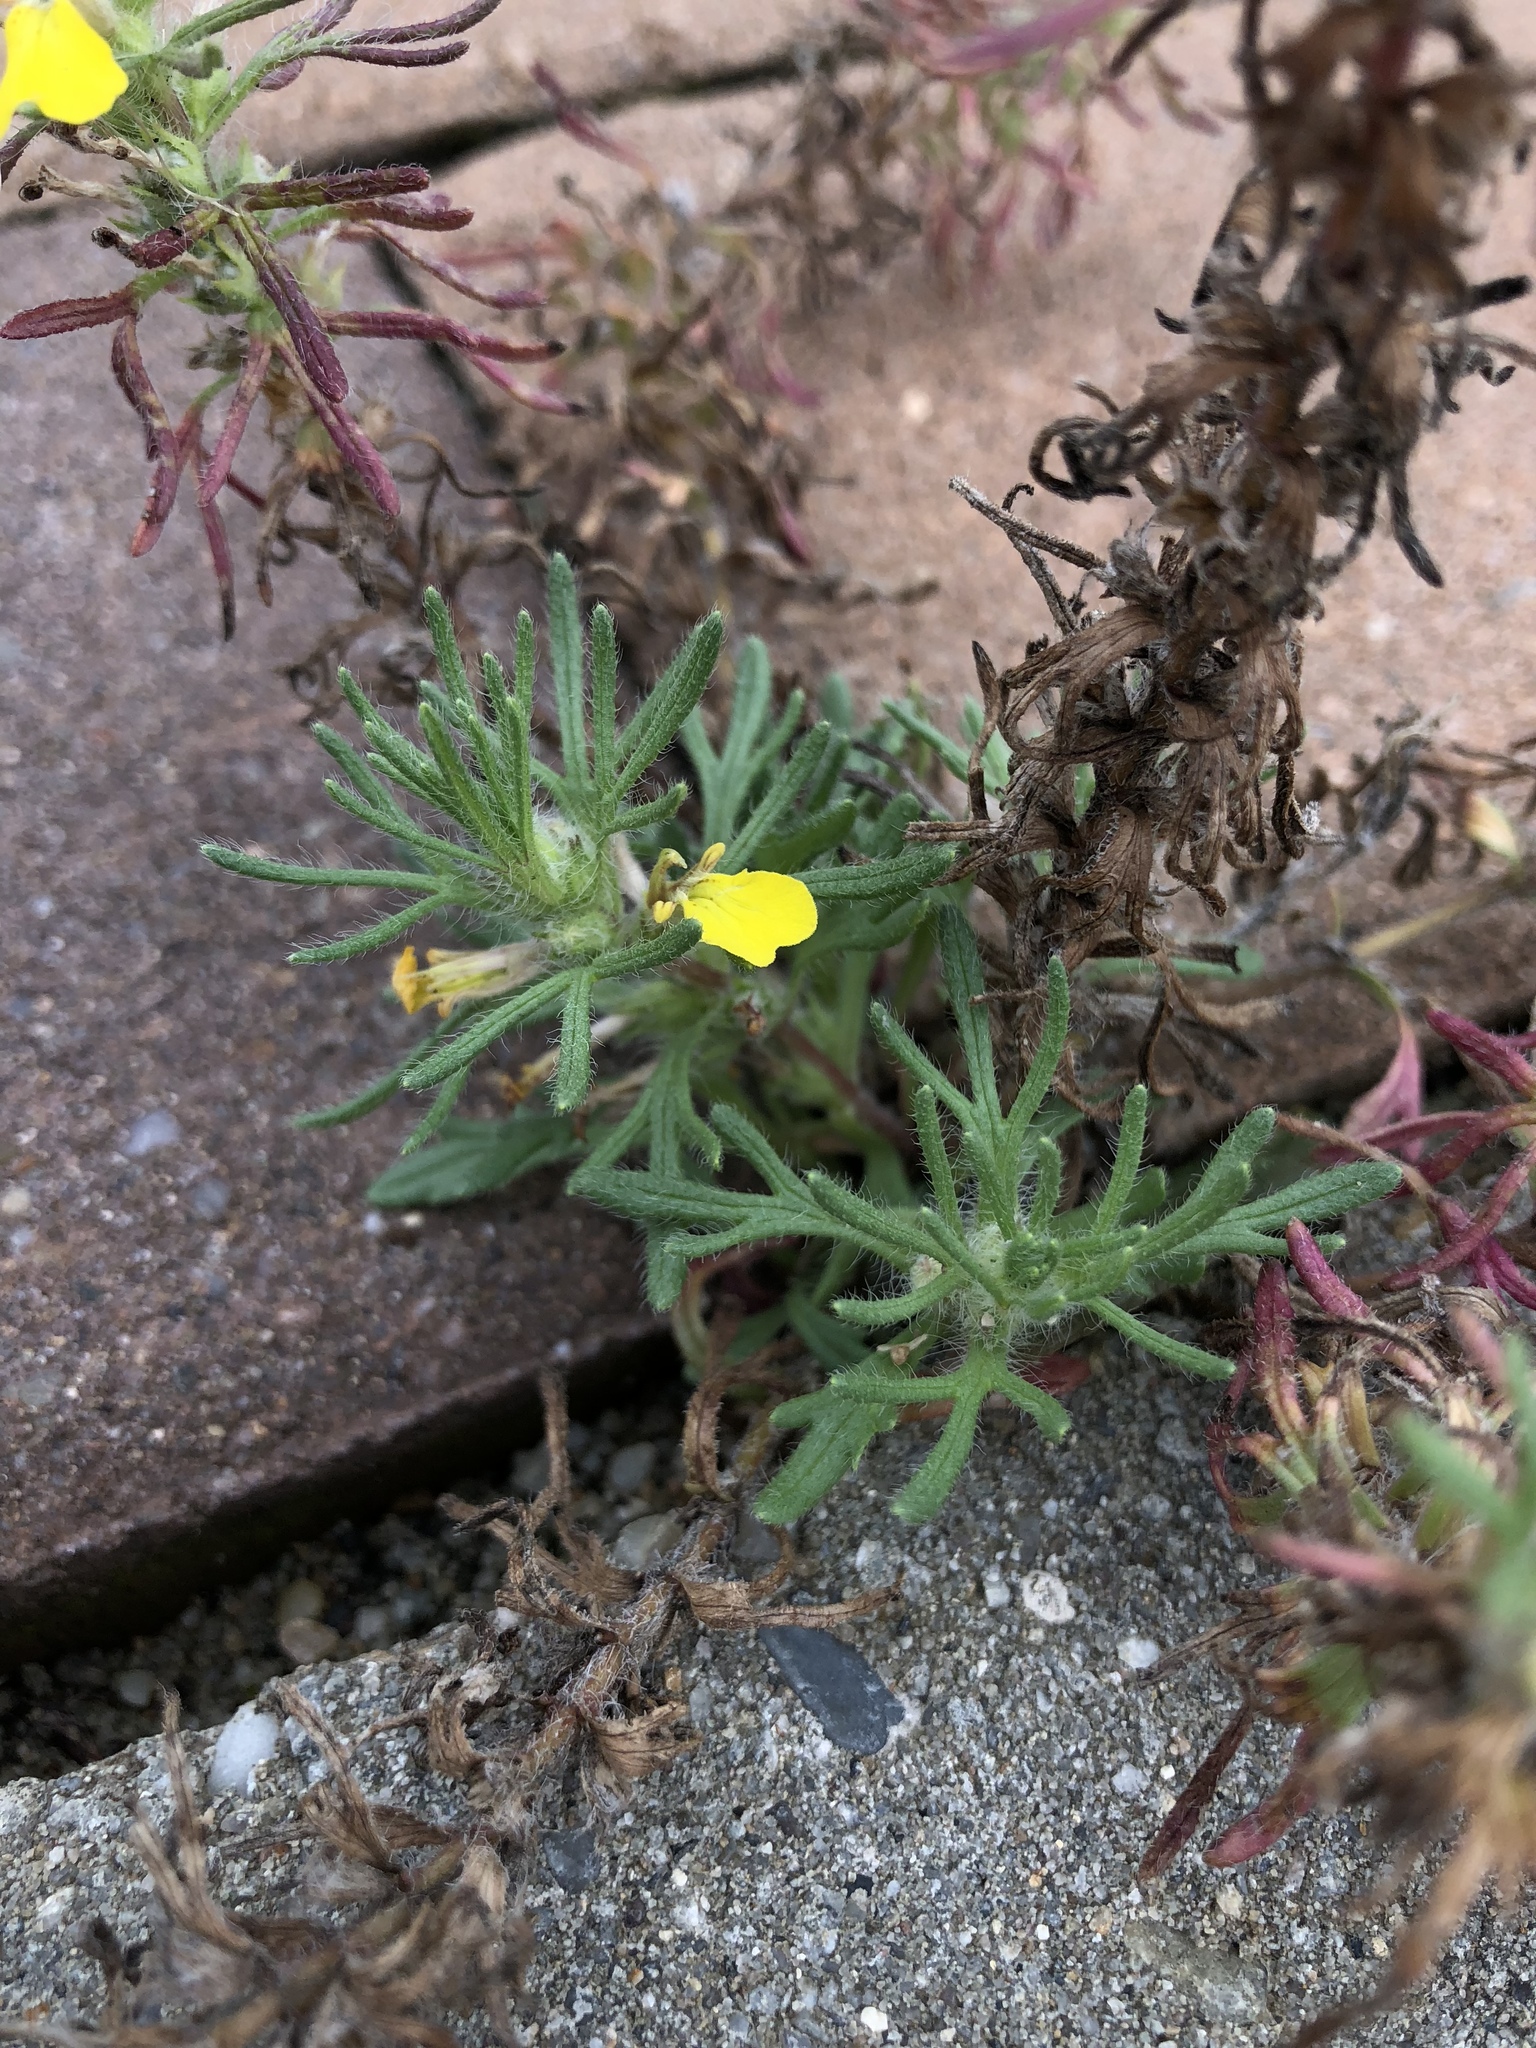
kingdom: Plantae
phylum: Tracheophyta
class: Magnoliopsida
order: Lamiales
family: Lamiaceae
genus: Ajuga
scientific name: Ajuga chamaepitys
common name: Ground-pine
